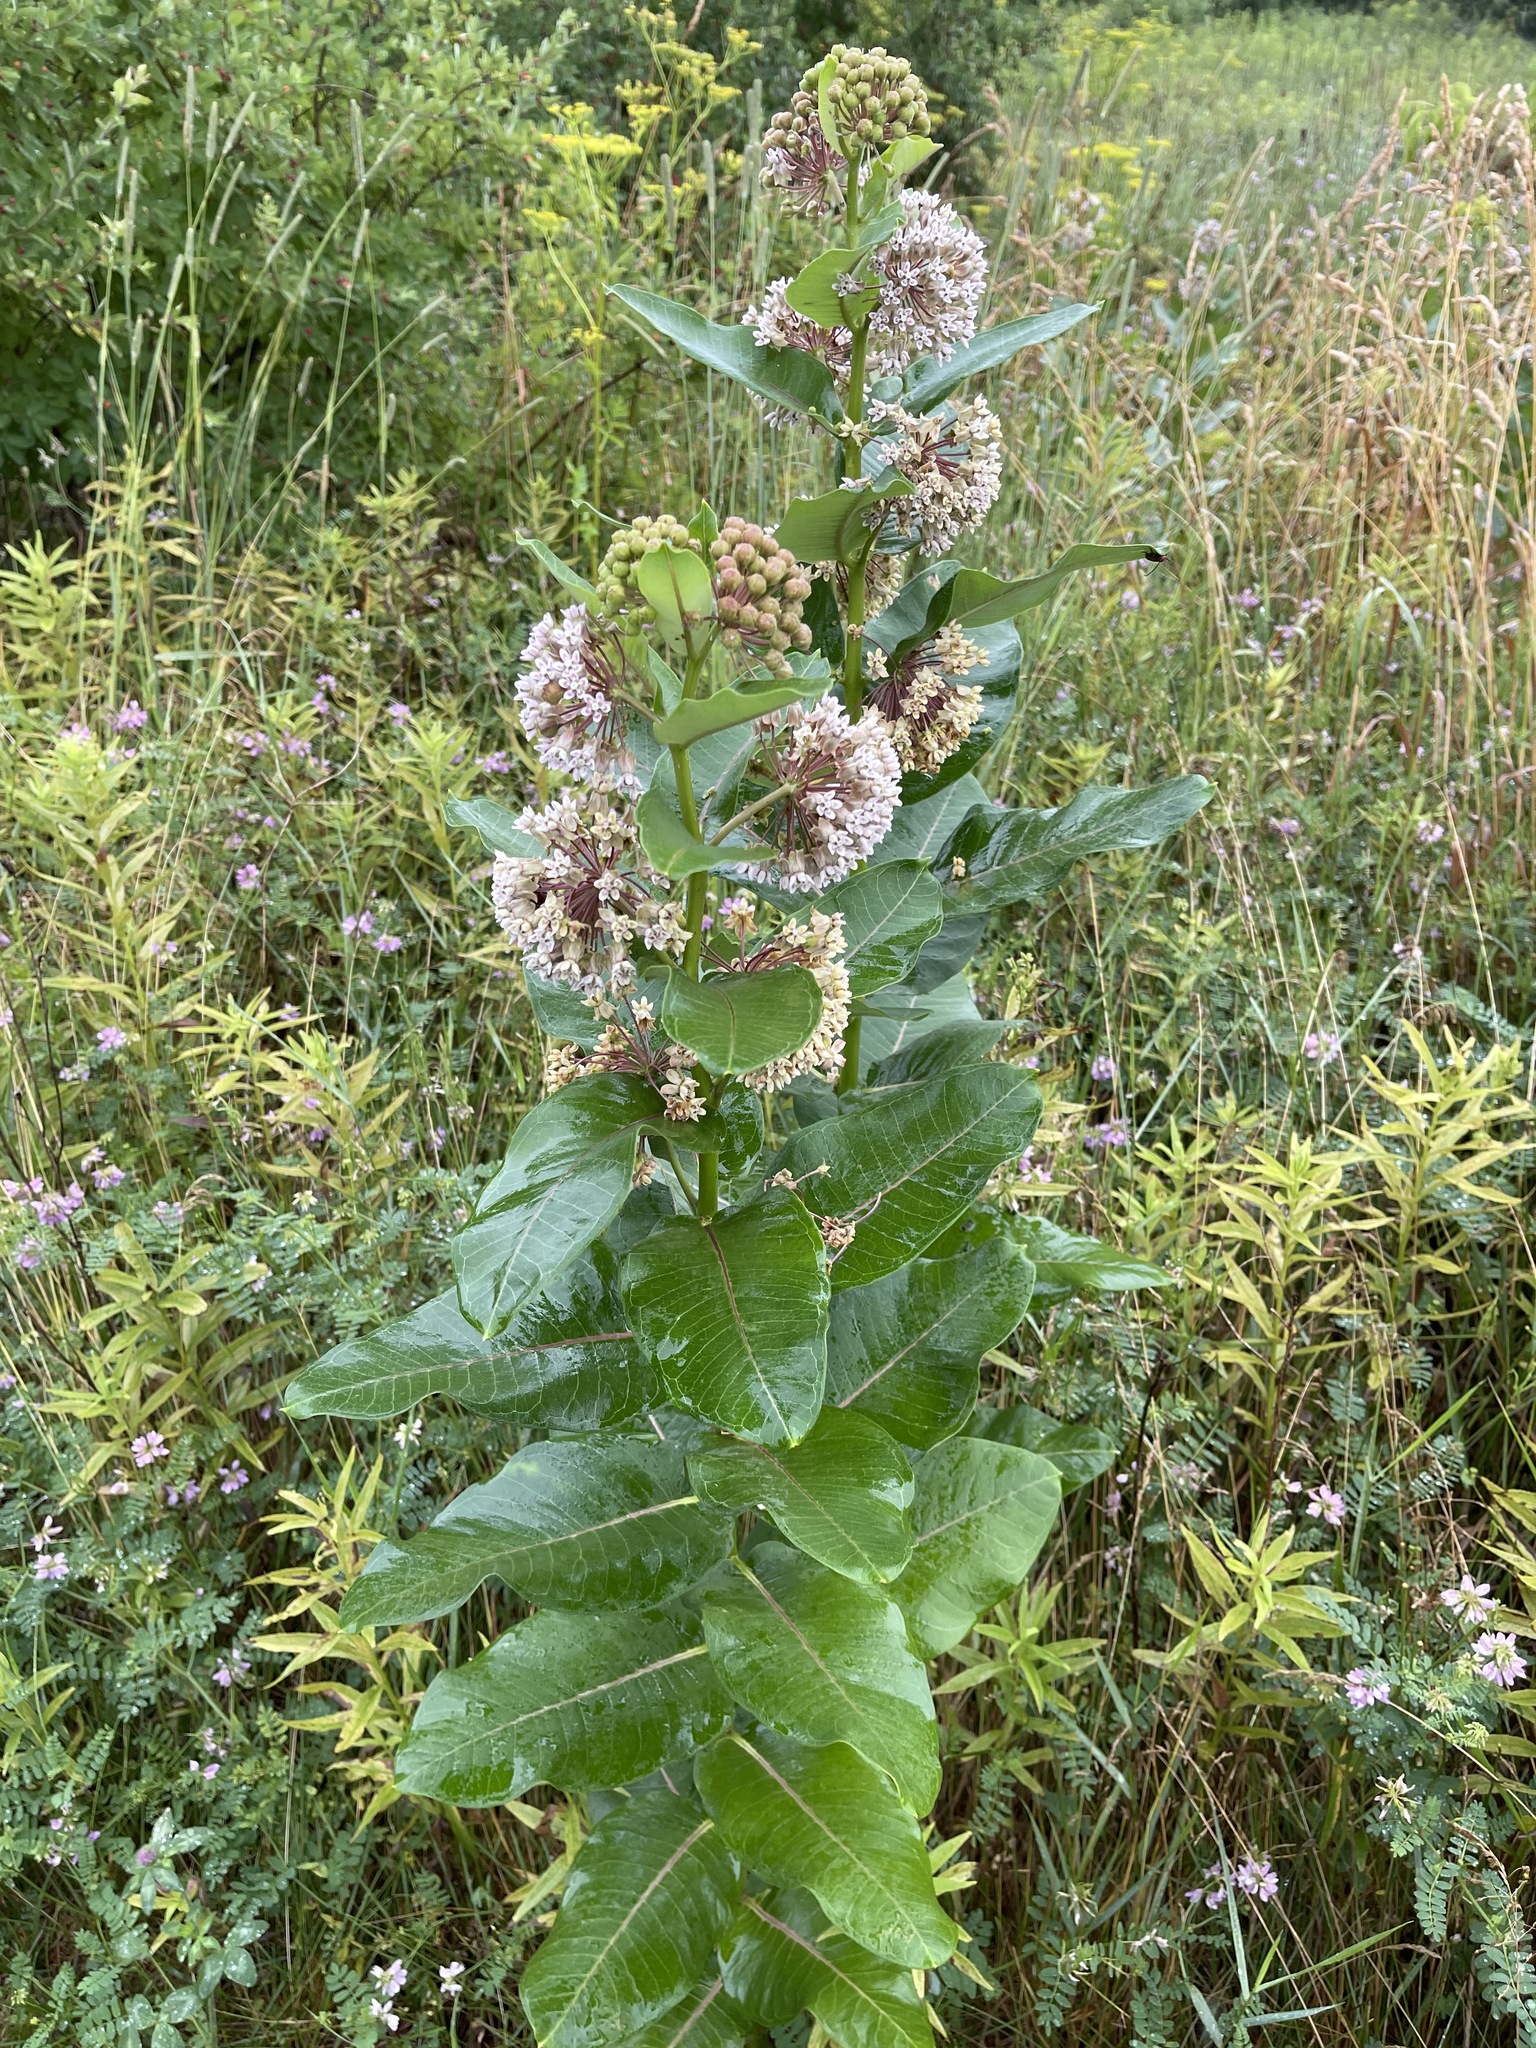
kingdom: Plantae
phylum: Tracheophyta
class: Magnoliopsida
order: Gentianales
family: Apocynaceae
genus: Asclepias
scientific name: Asclepias syriaca
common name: Common milkweed
